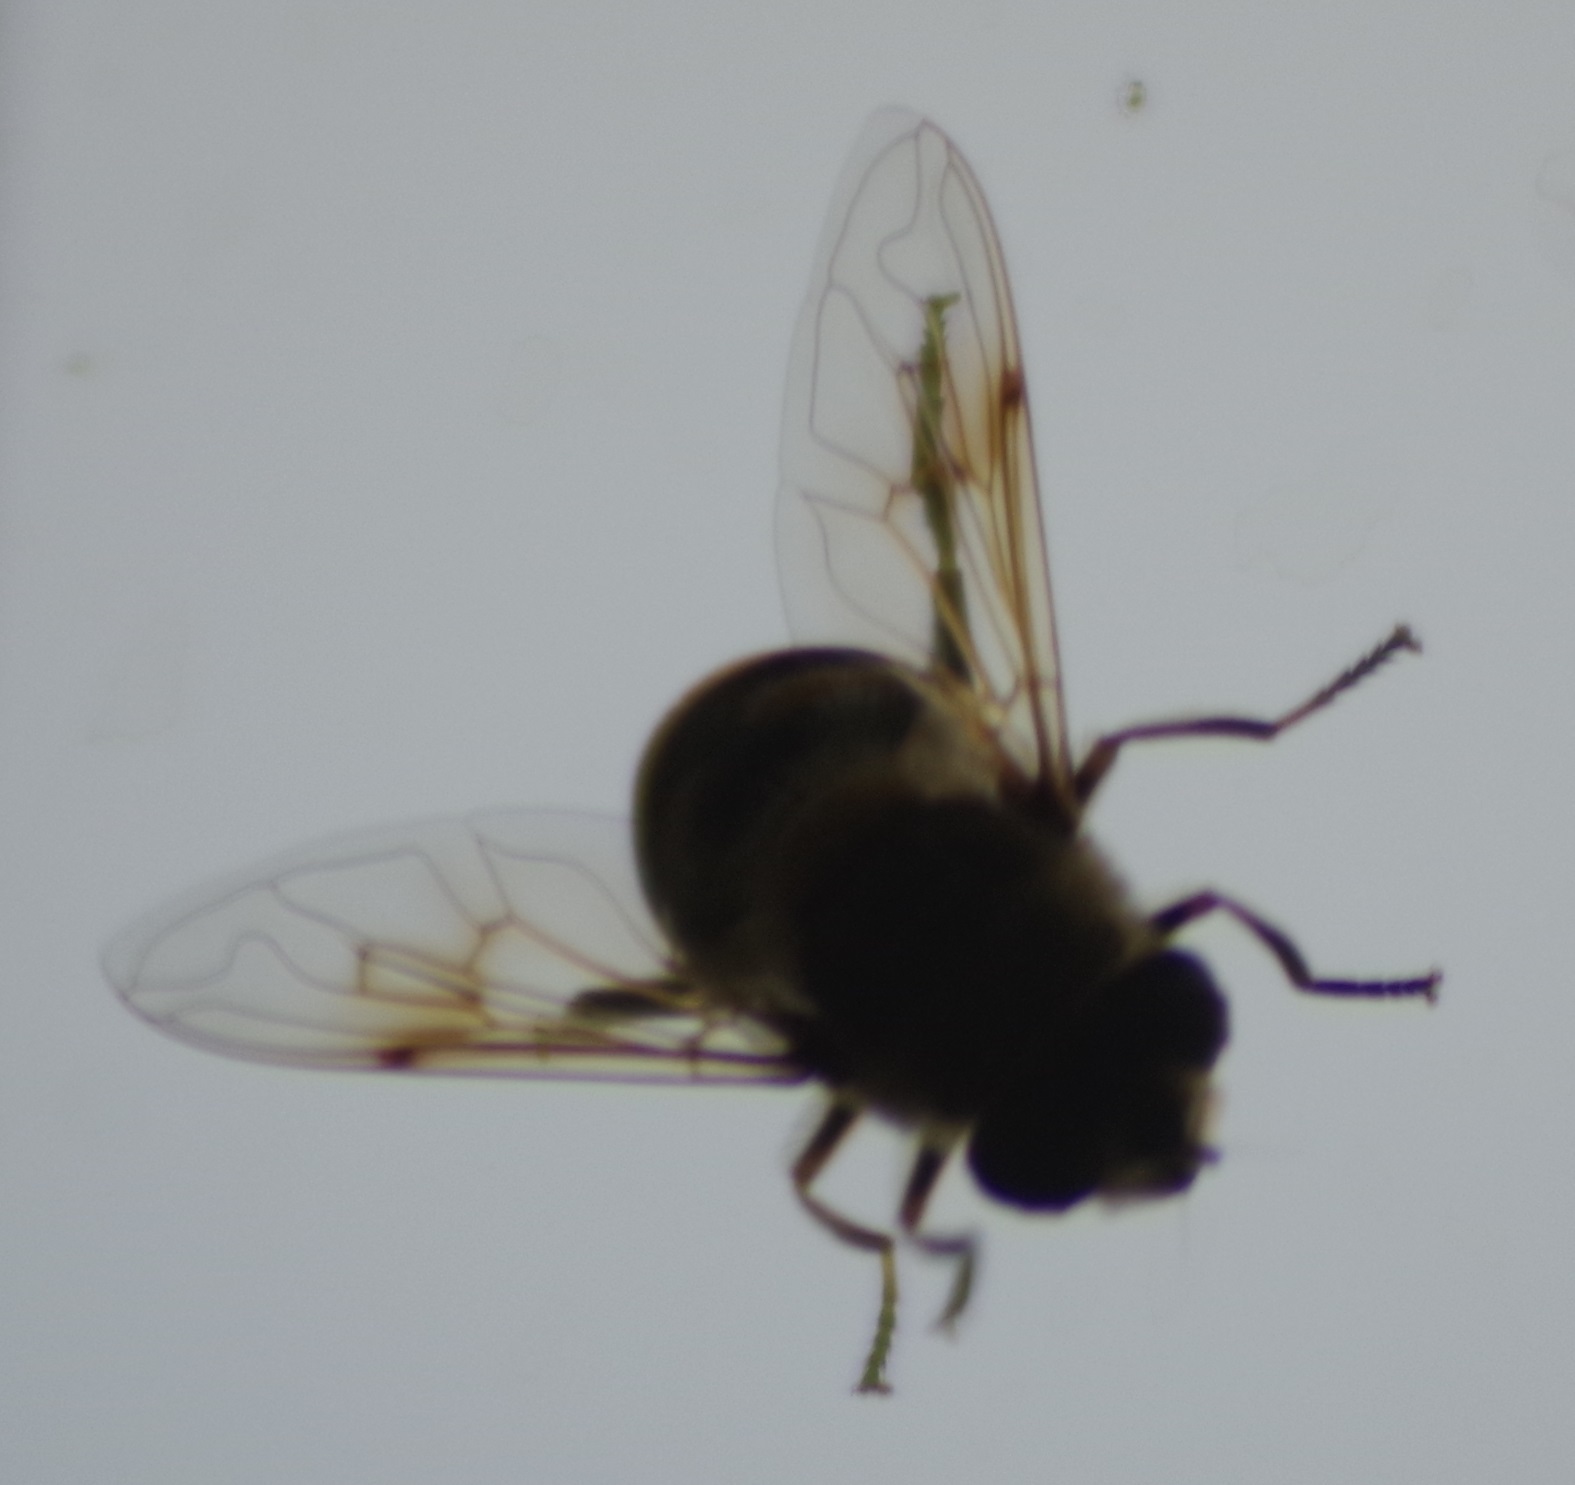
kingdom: Animalia
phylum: Arthropoda
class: Insecta
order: Diptera
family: Syrphidae
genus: Eristalis
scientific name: Eristalis tenax
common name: Drone fly
